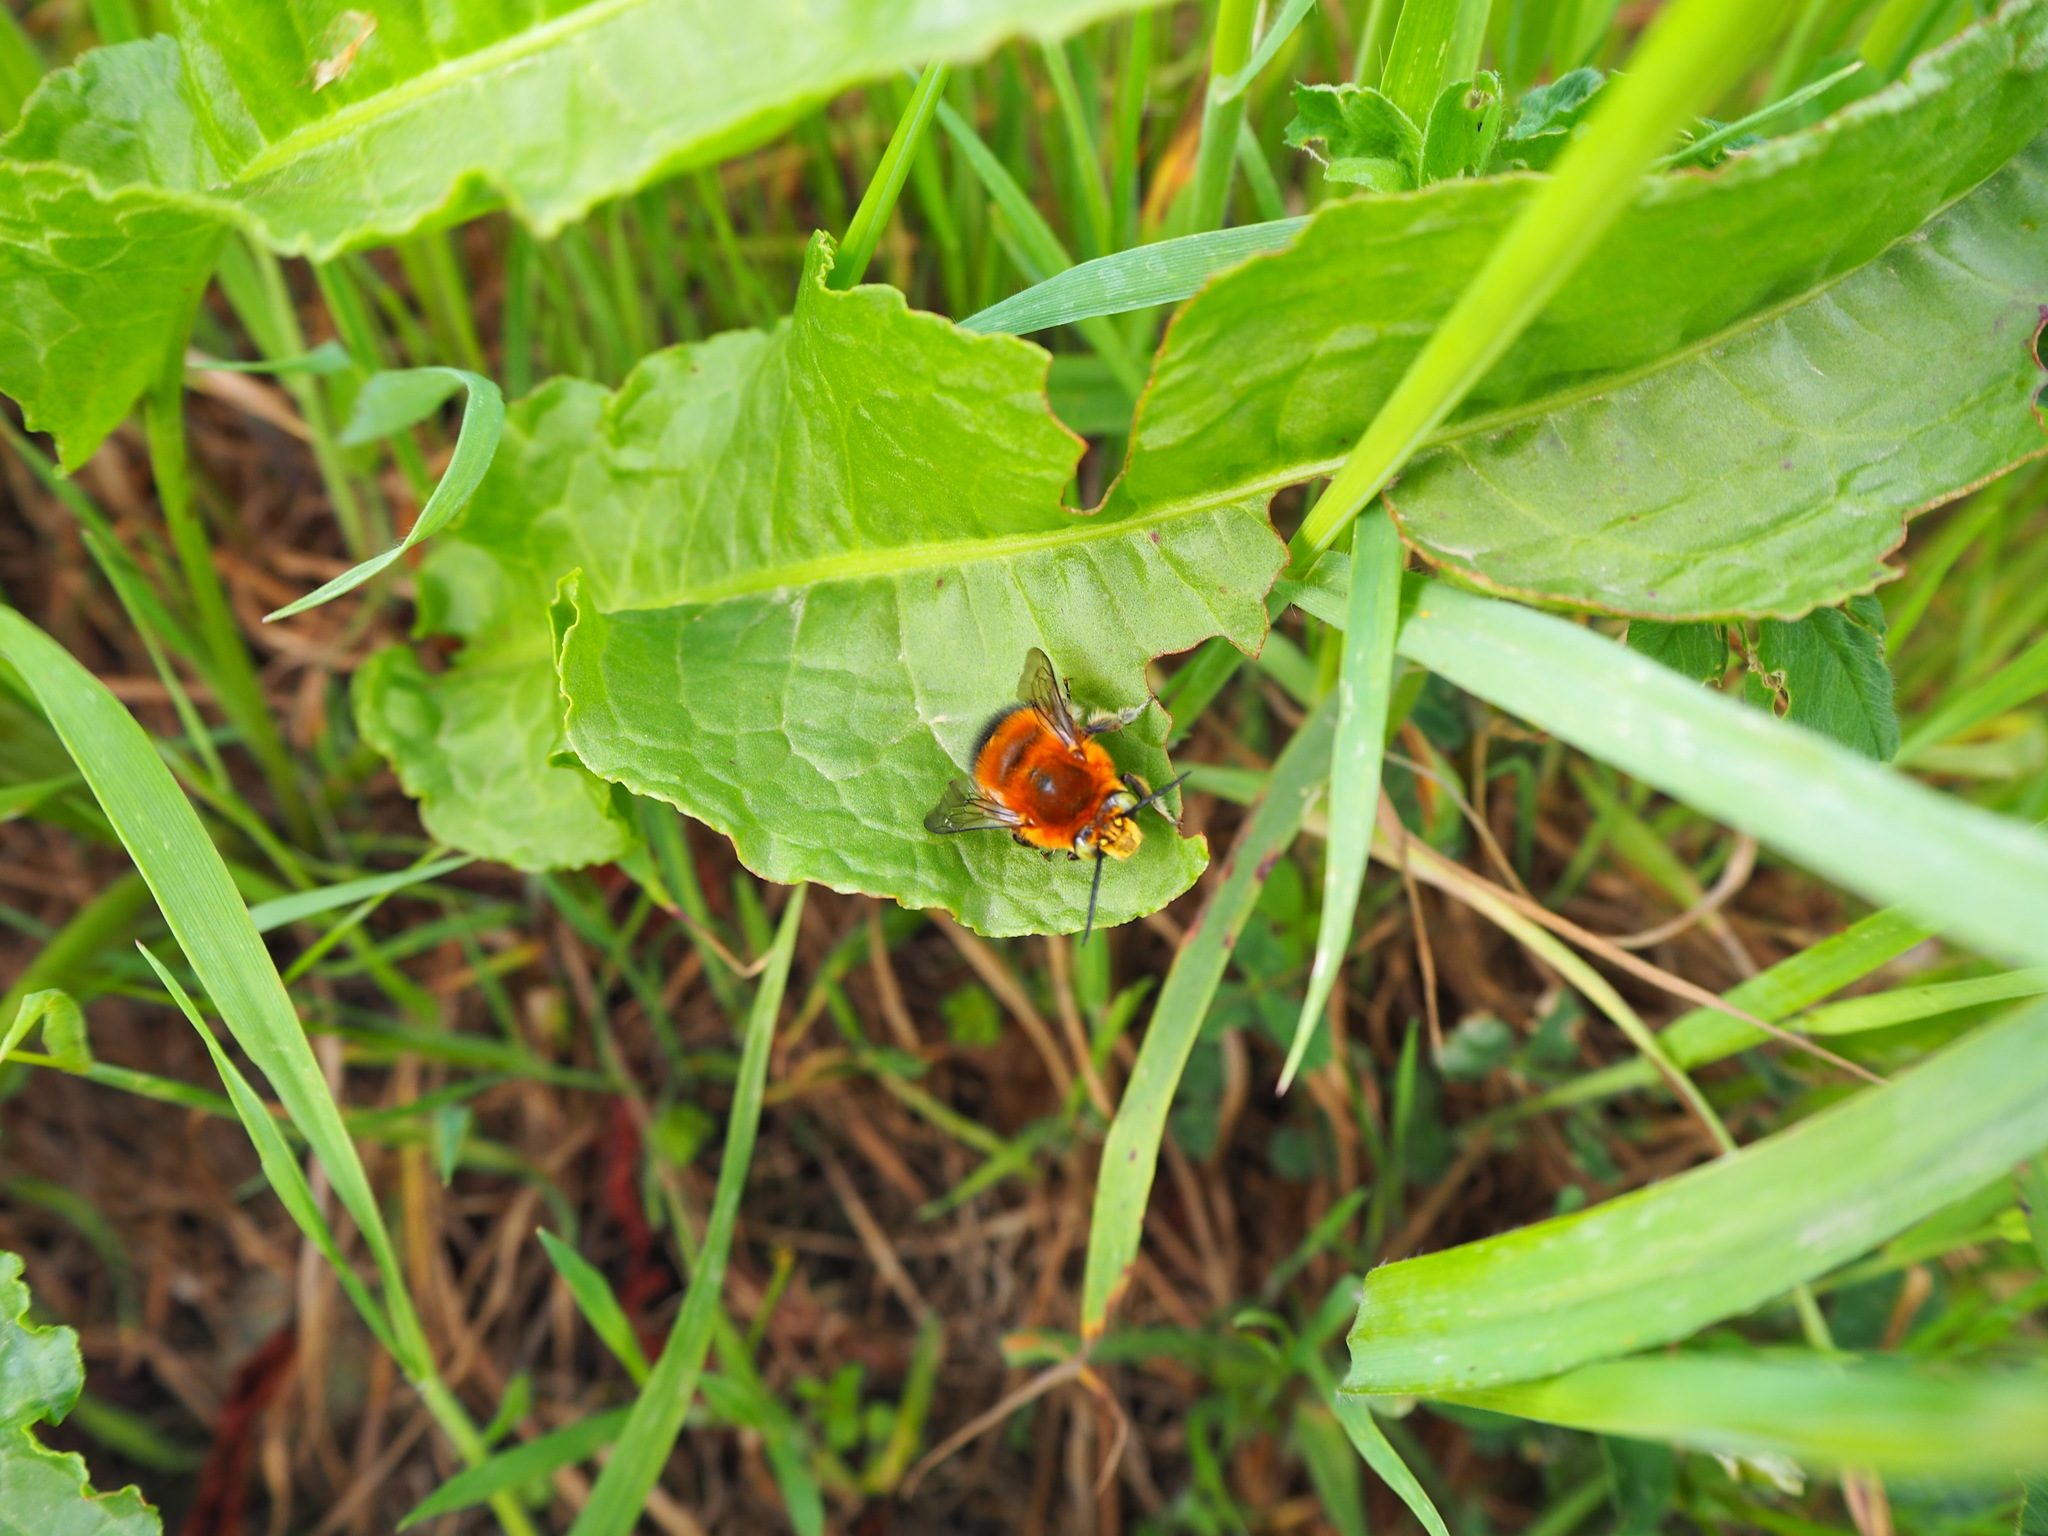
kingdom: Animalia
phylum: Arthropoda
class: Insecta
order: Hymenoptera
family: Apidae
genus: Habropoda
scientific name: Habropoda tarsata
